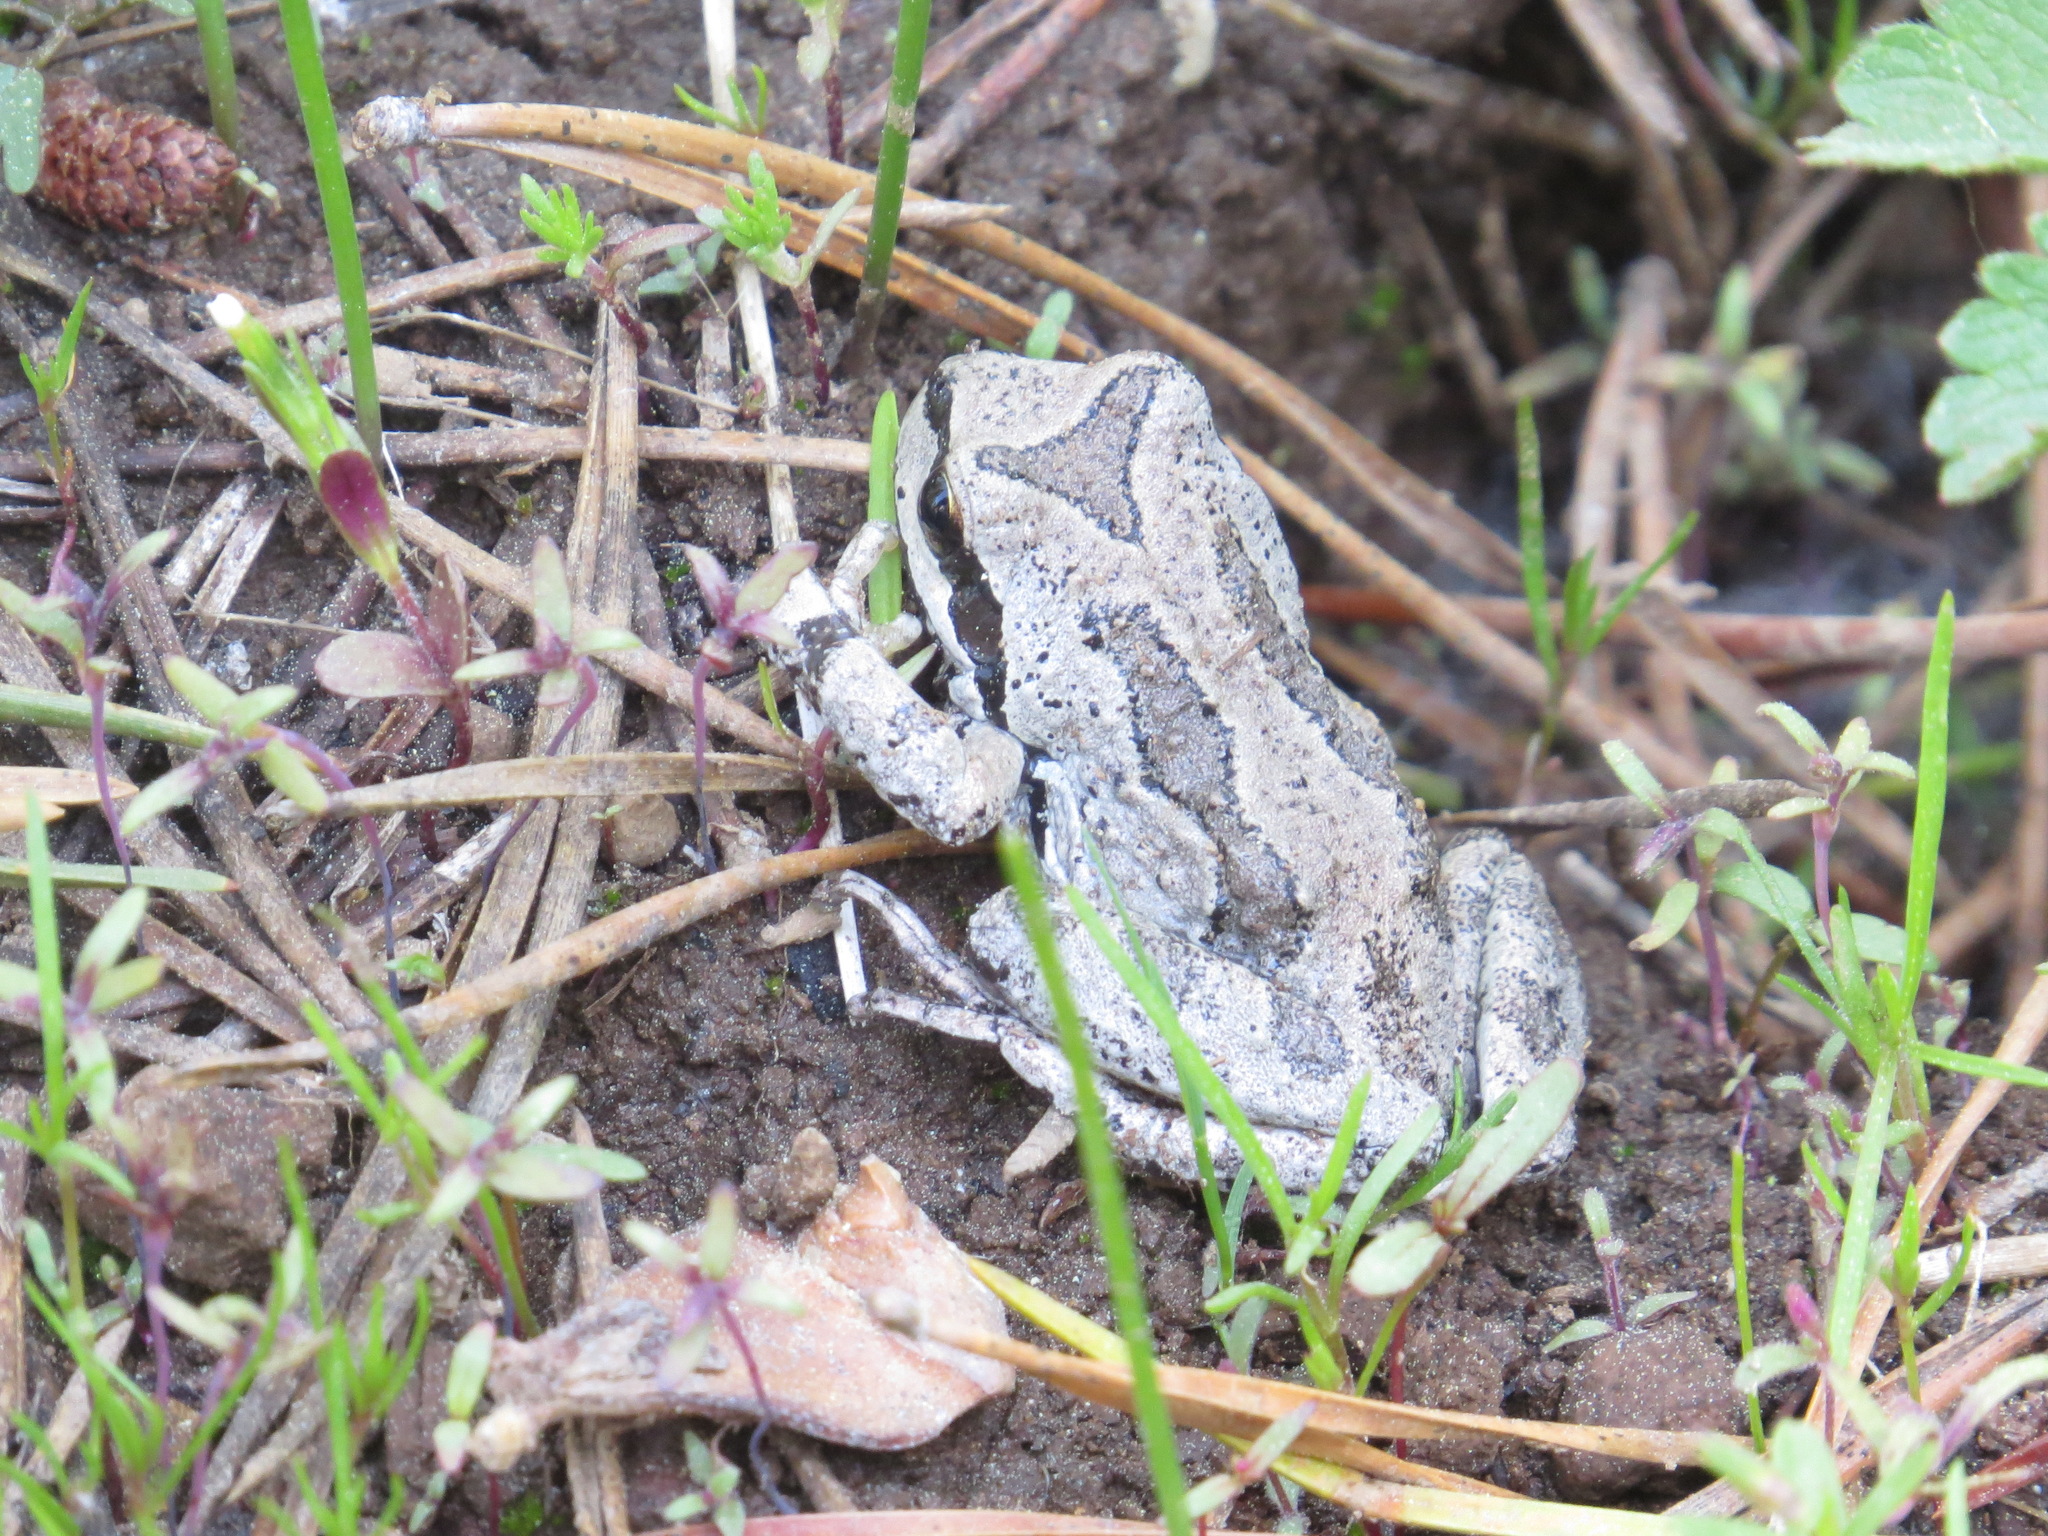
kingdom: Animalia
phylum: Chordata
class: Amphibia
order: Anura
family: Hylidae
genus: Pseudacris
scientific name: Pseudacris regilla
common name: Pacific chorus frog
